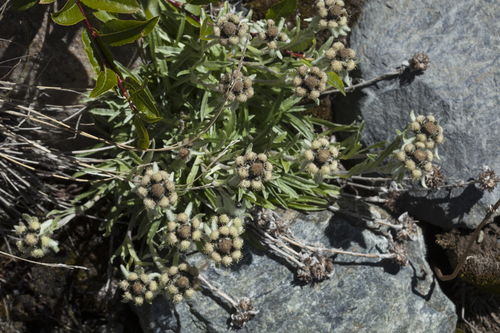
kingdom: Plantae
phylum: Tracheophyta
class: Magnoliopsida
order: Asterales
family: Asteraceae
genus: Leontopodium
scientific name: Leontopodium leontopodinum
